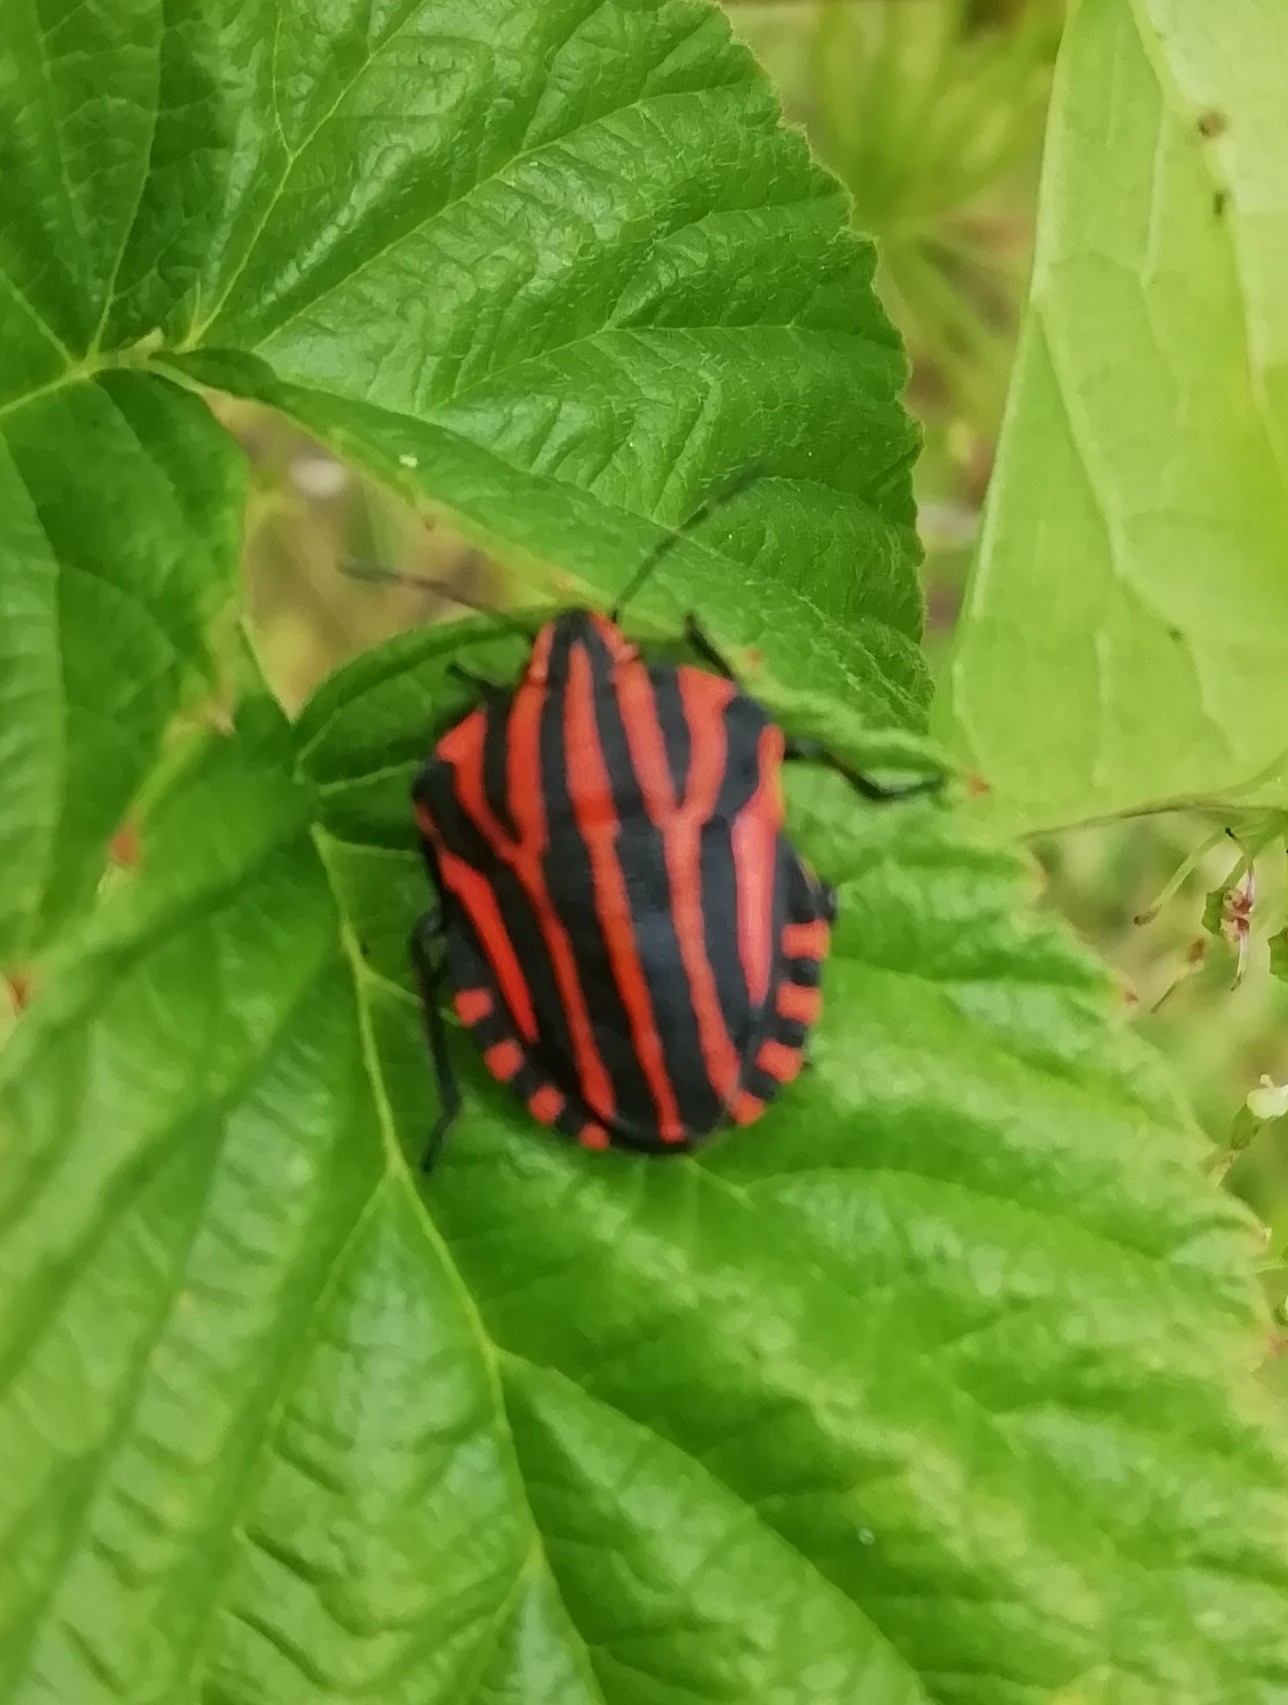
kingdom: Animalia
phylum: Arthropoda
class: Insecta
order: Hemiptera
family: Pentatomidae
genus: Graphosoma
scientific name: Graphosoma italicum
